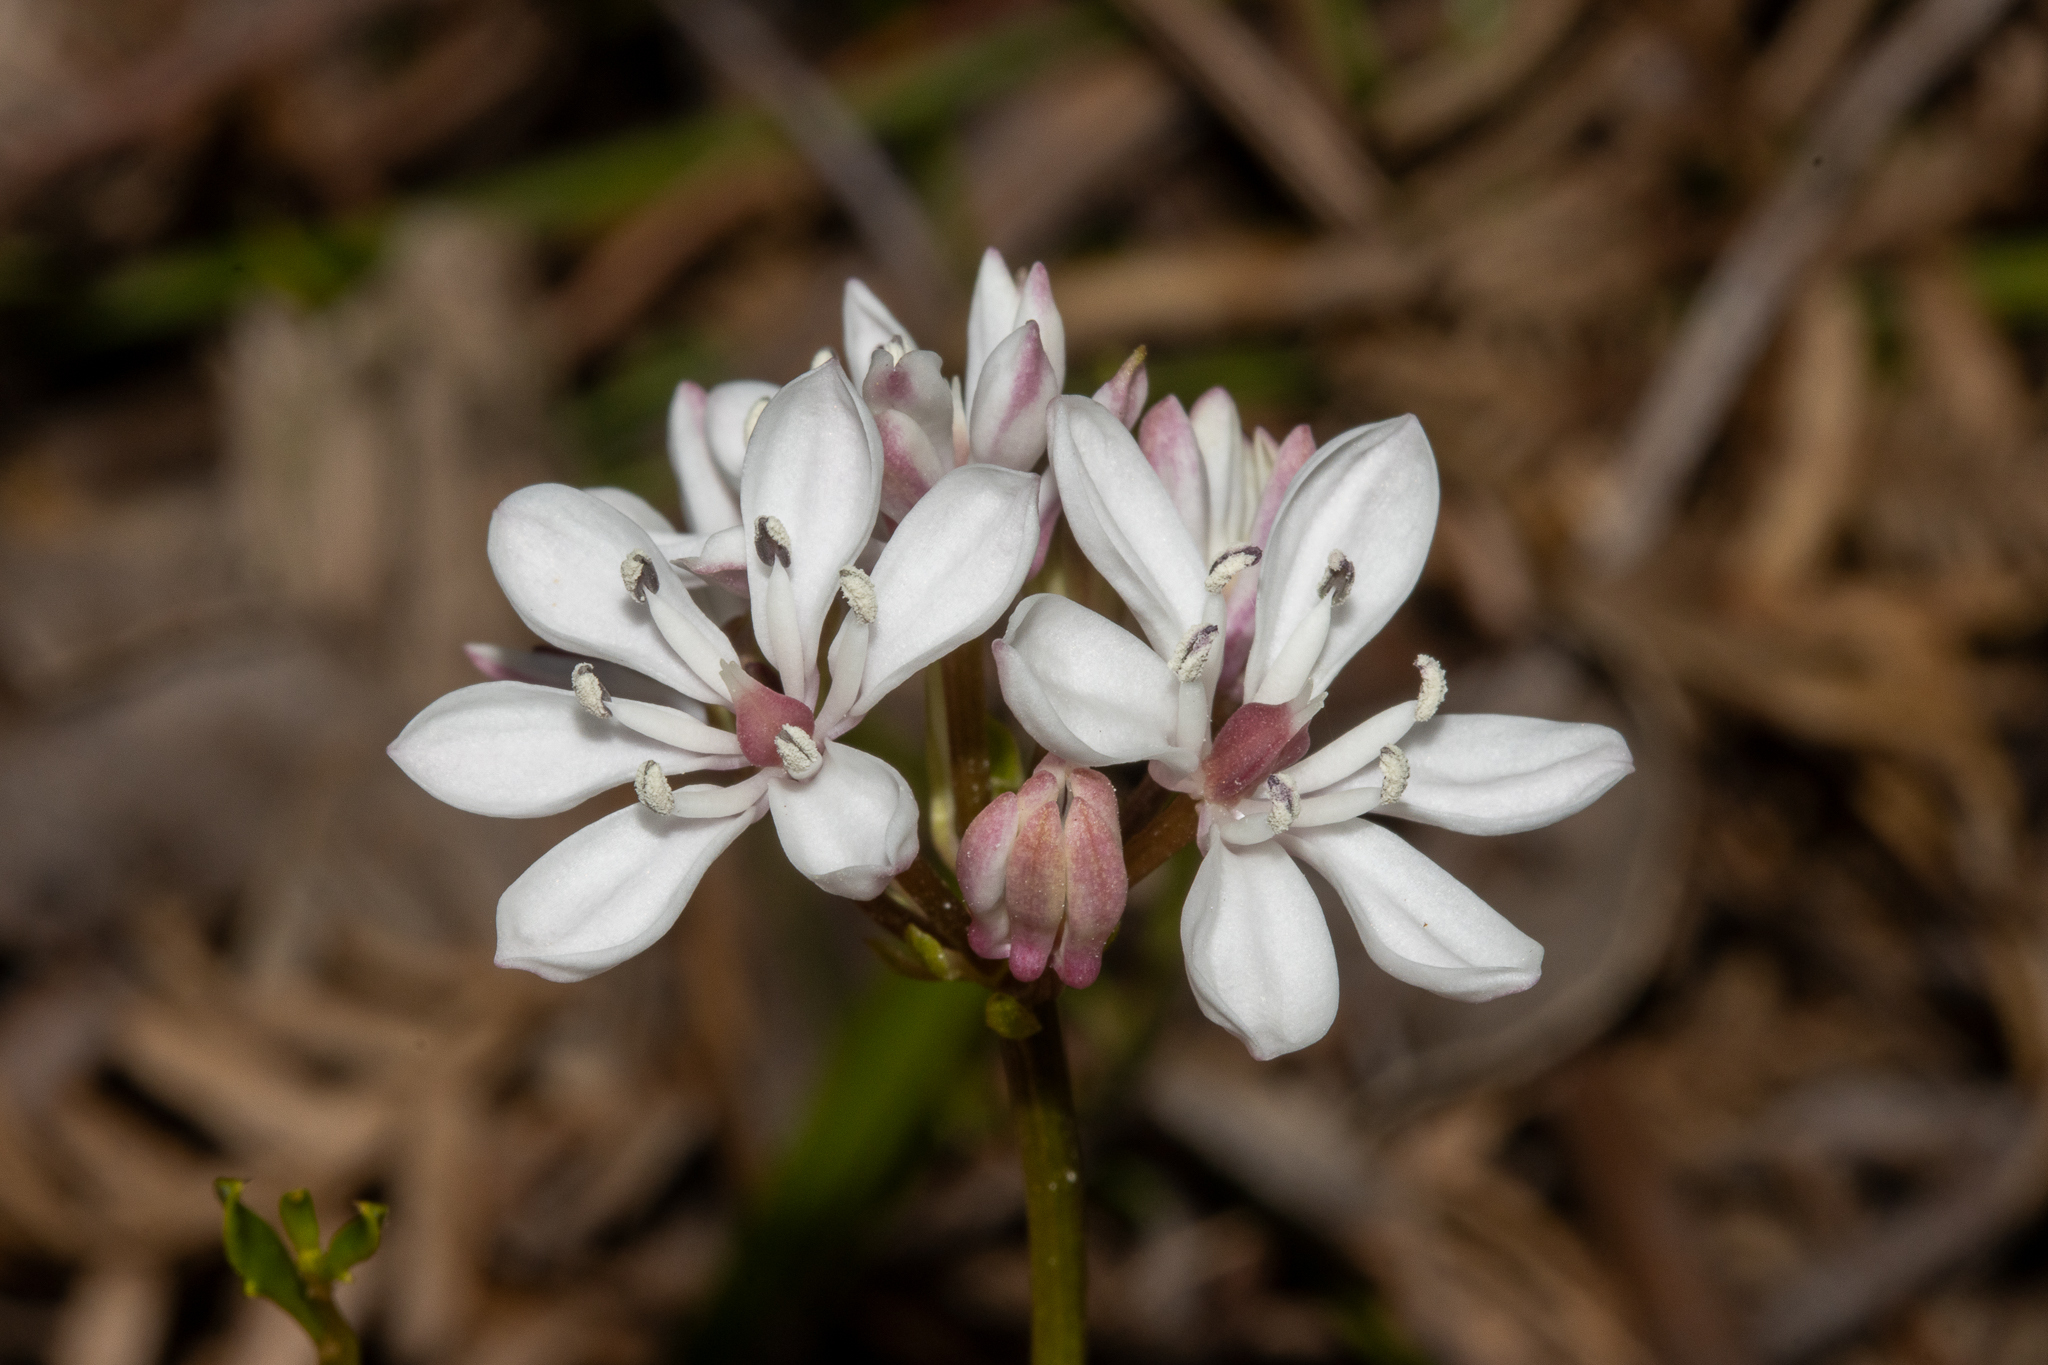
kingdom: Plantae
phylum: Tracheophyta
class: Liliopsida
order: Liliales
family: Colchicaceae
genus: Burchardia
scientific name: Burchardia umbellata
